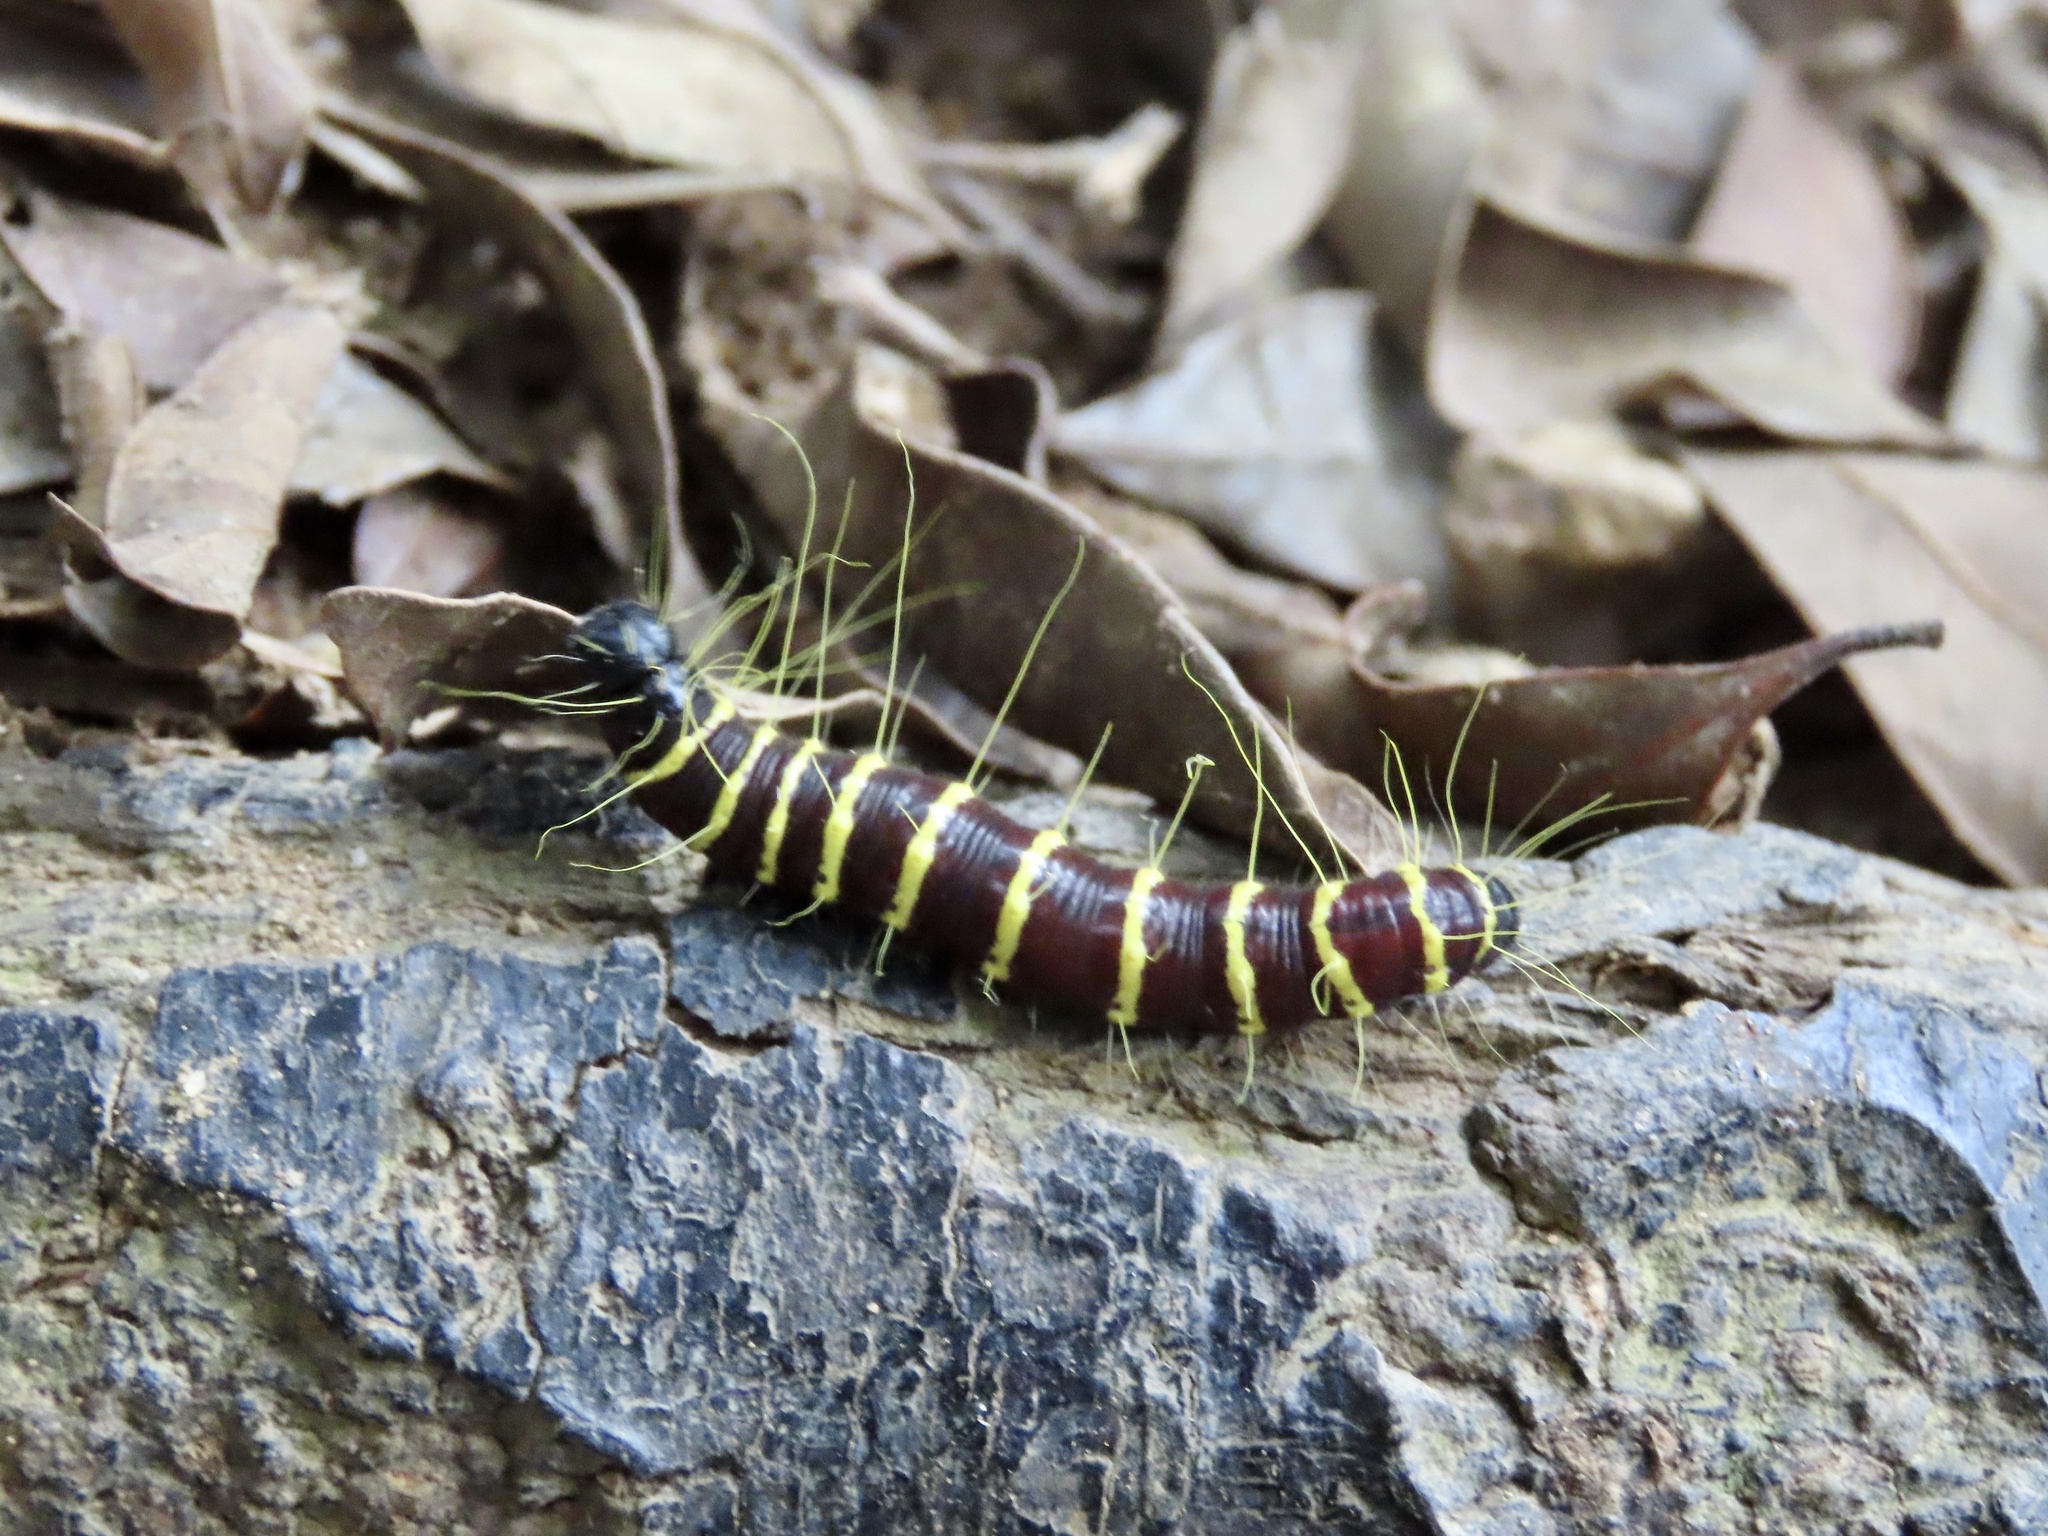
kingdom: Animalia
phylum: Arthropoda
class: Insecta
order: Lepidoptera
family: Pieridae
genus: Delias
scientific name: Delias pasithoe
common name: Red-base jezebel
